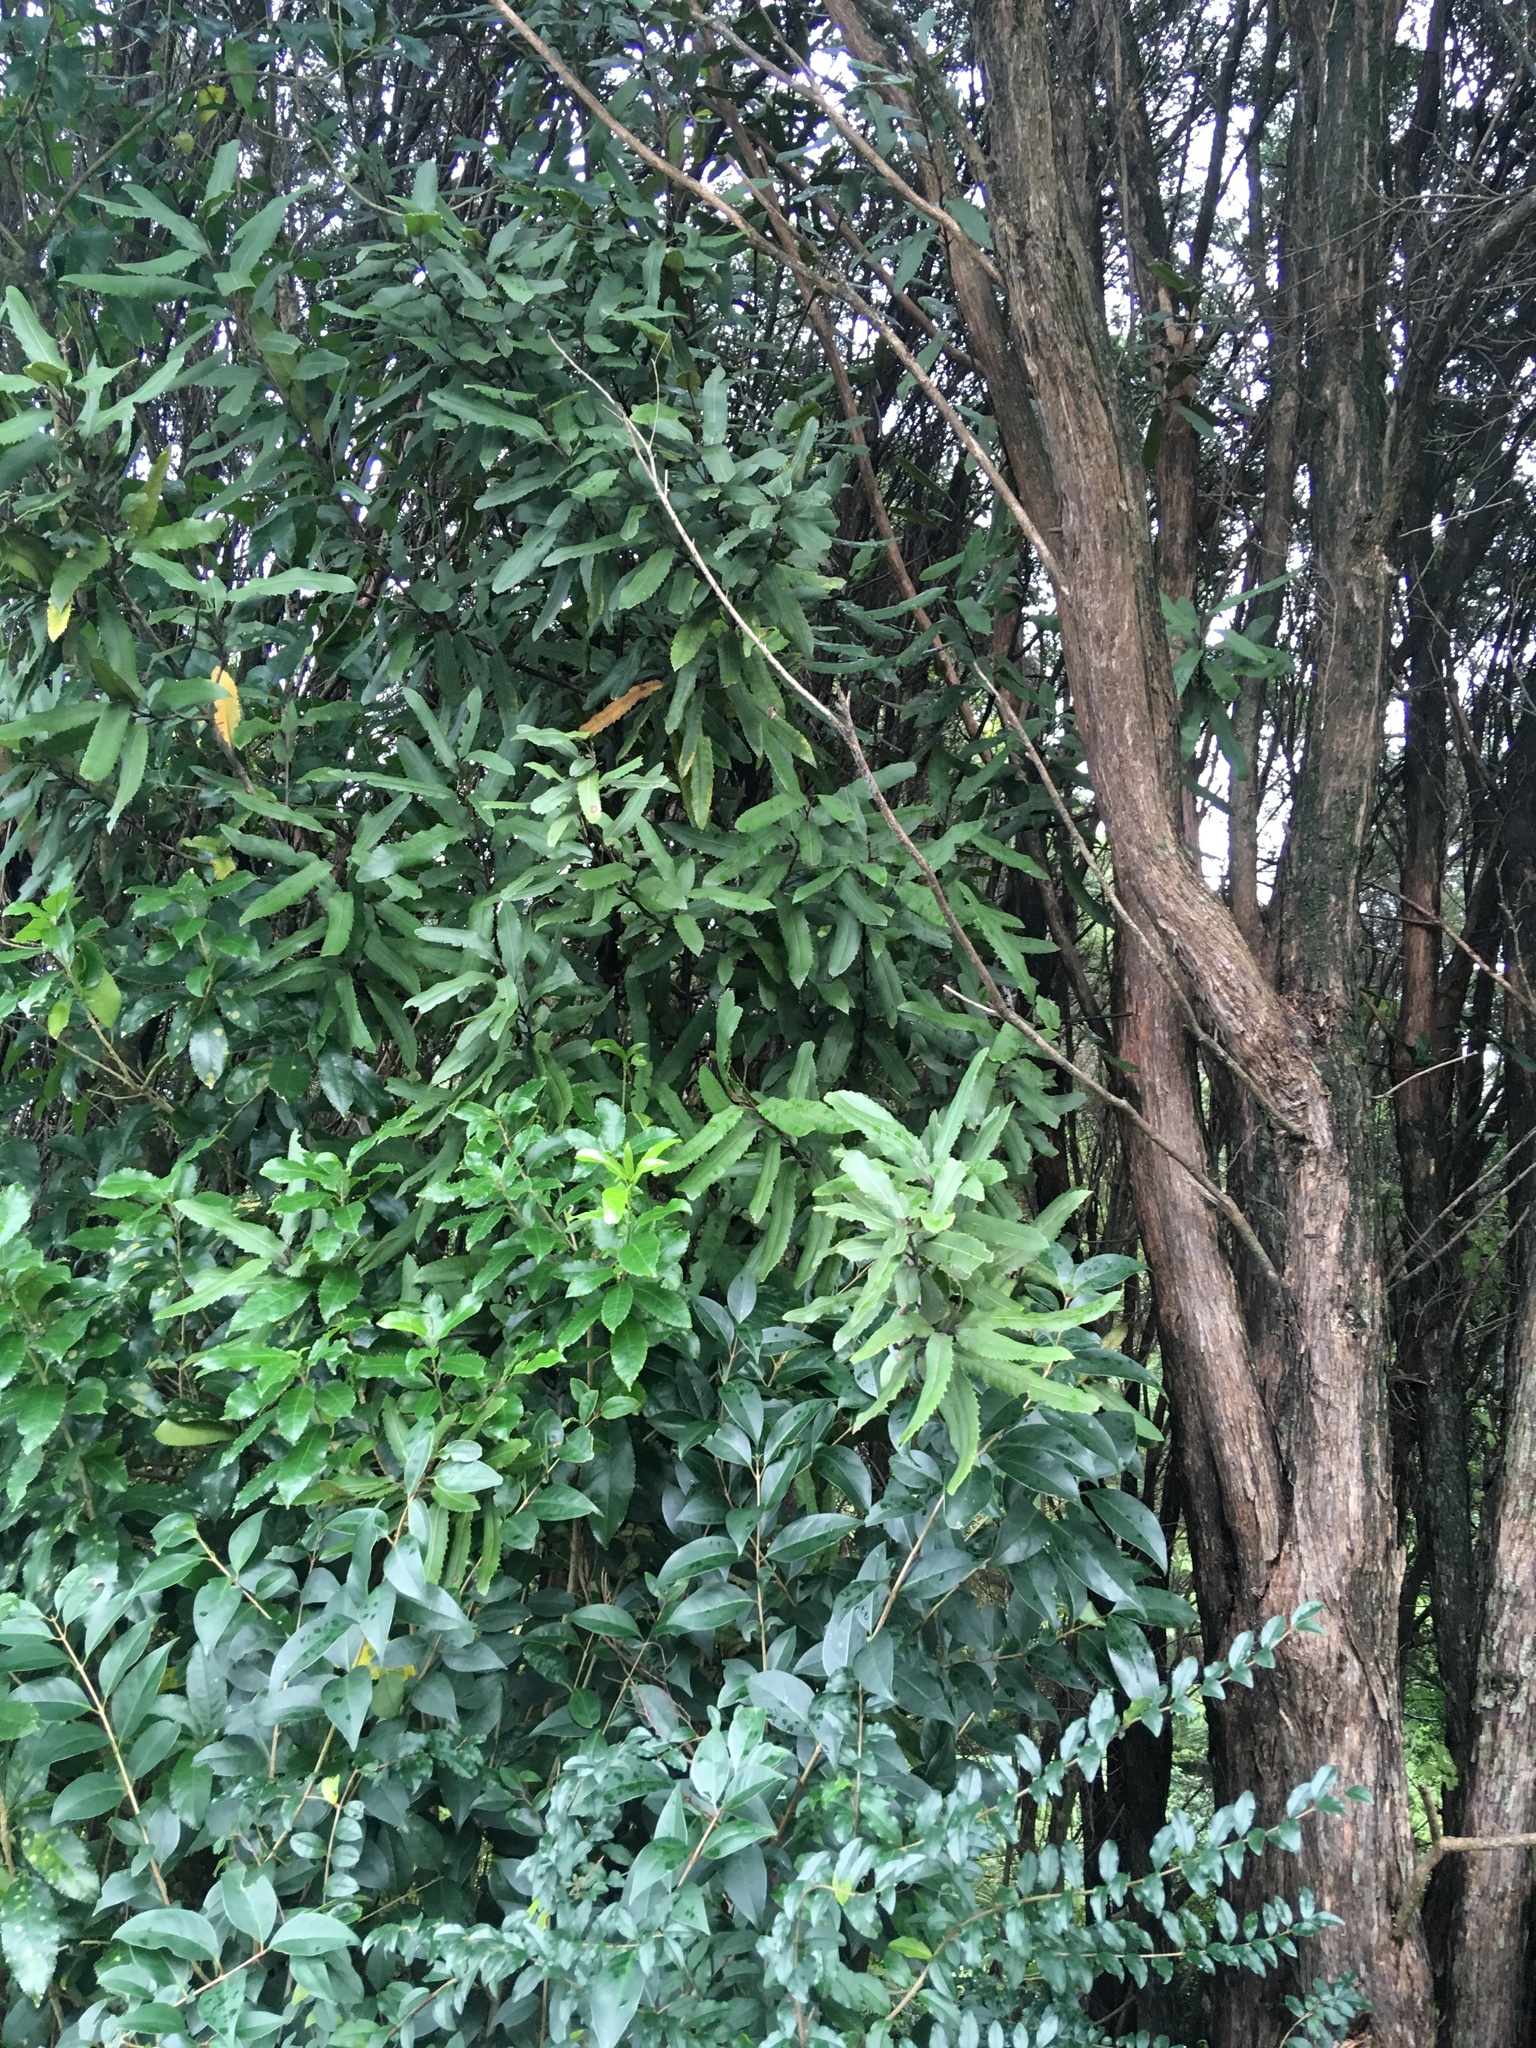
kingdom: Plantae
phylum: Tracheophyta
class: Magnoliopsida
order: Proteales
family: Proteaceae
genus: Knightia
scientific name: Knightia excelsa
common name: New zealand-honeysuckle
